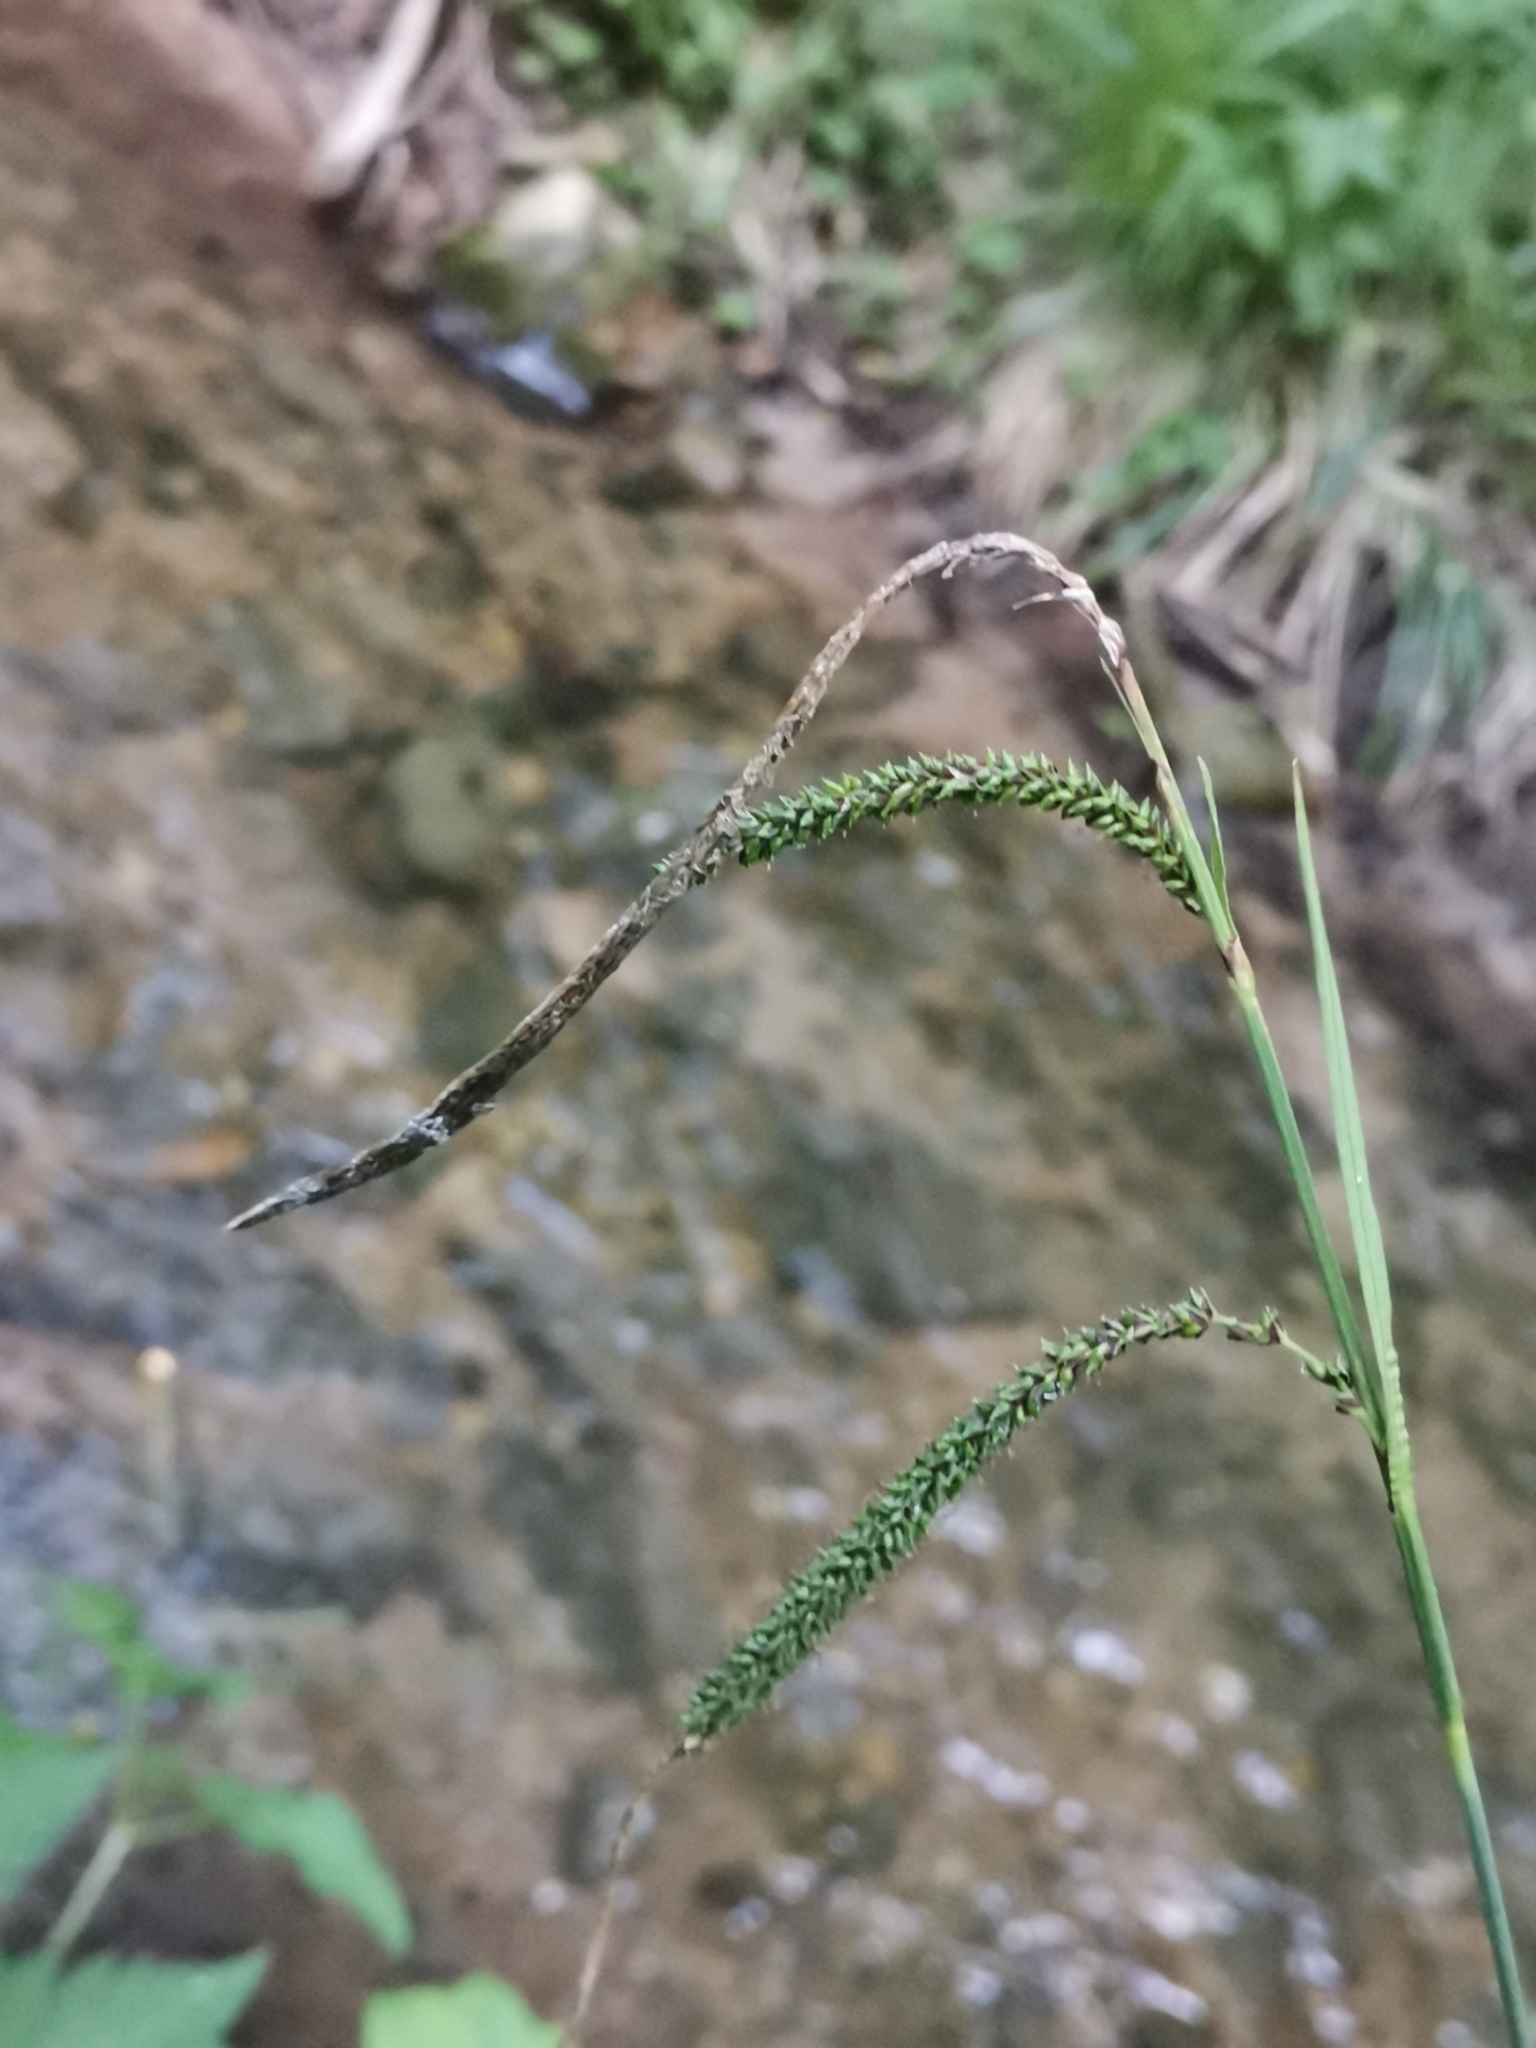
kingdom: Plantae
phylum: Tracheophyta
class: Liliopsida
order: Poales
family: Cyperaceae
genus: Carex
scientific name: Carex pendula
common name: Pendulous sedge
